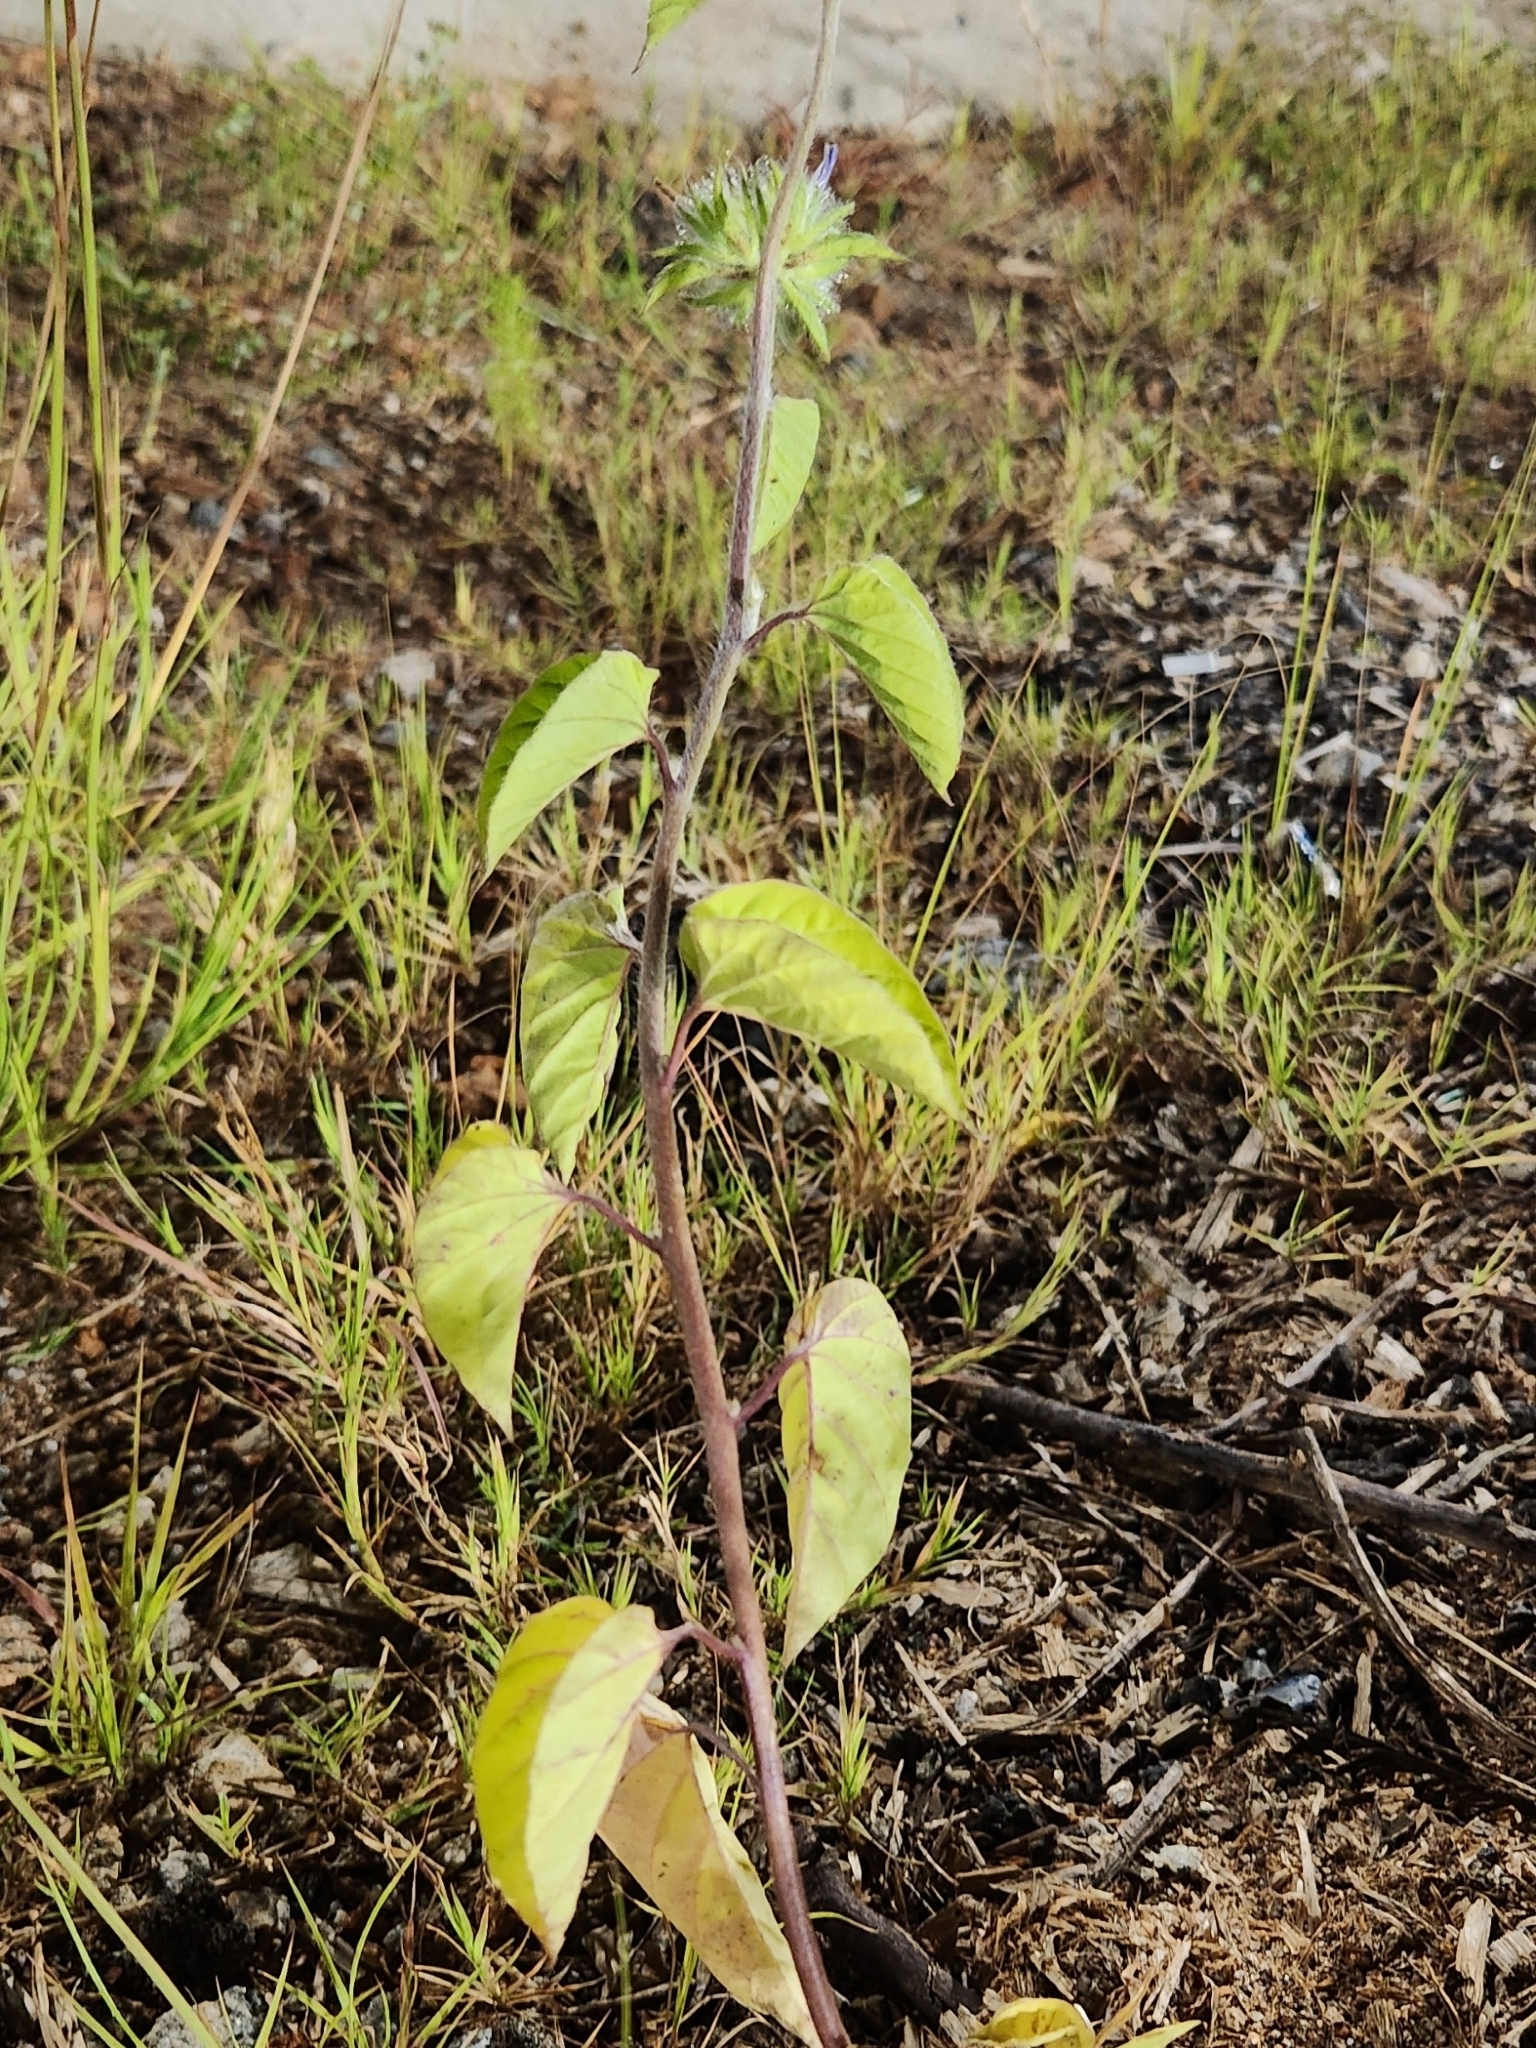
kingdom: Plantae
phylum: Tracheophyta
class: Magnoliopsida
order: Solanales
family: Convolvulaceae
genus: Jacquemontia
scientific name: Jacquemontia tamnifolia
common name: Hairy clustervine
